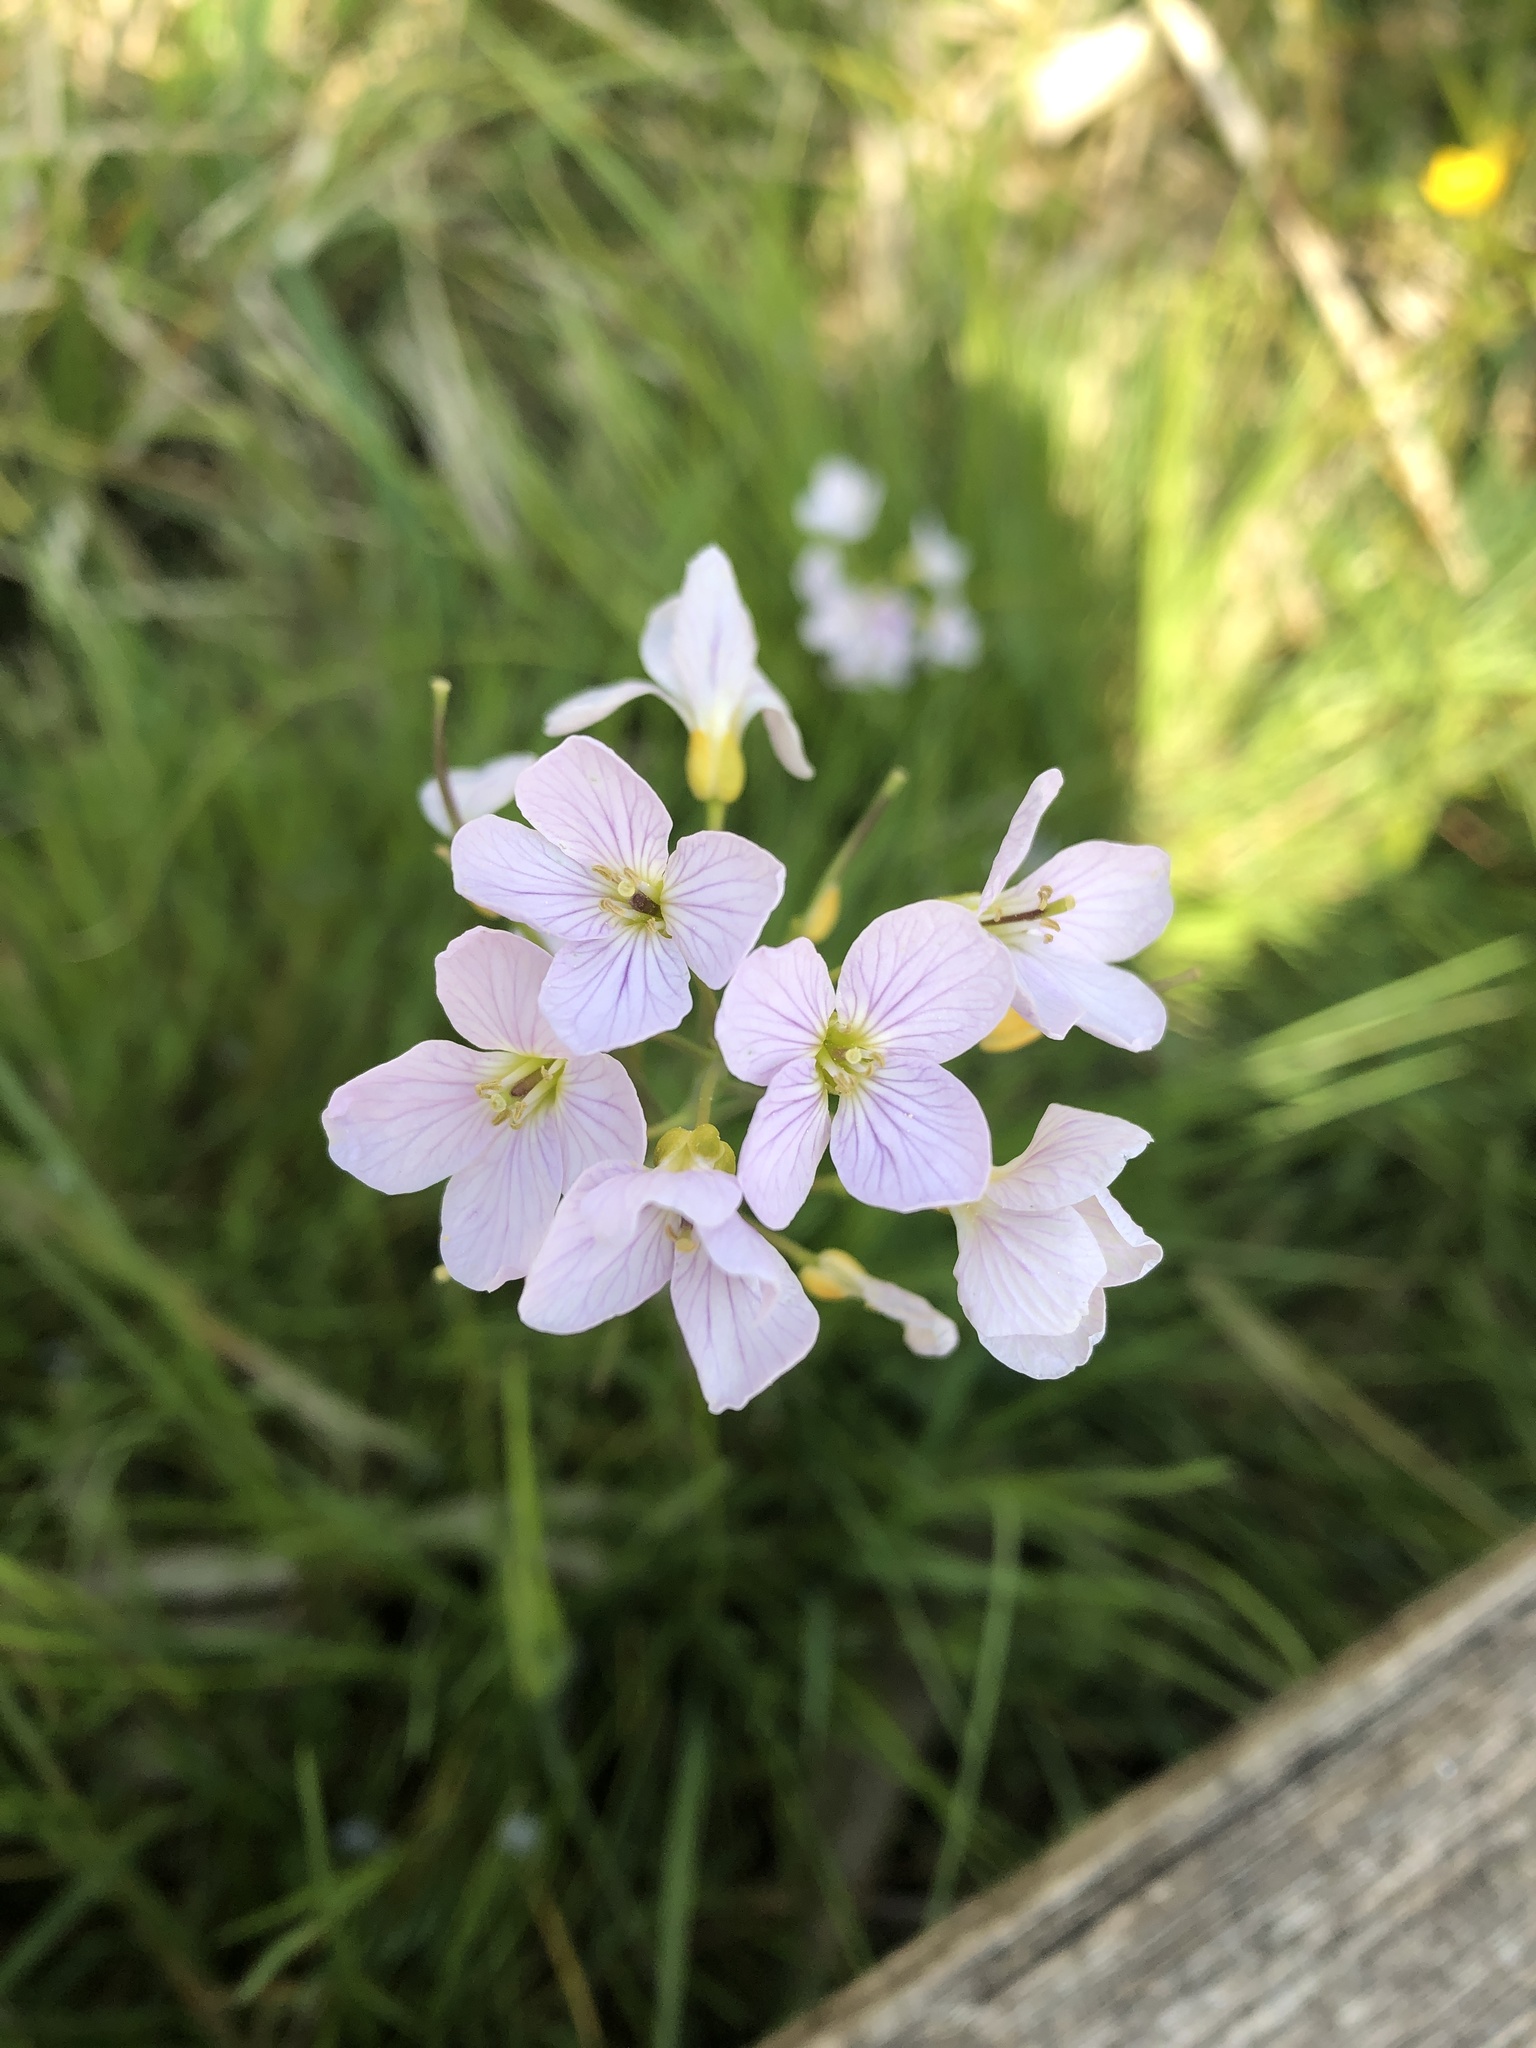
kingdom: Plantae
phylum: Tracheophyta
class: Magnoliopsida
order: Brassicales
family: Brassicaceae
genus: Cardamine
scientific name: Cardamine pratensis
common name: Cuckoo flower
